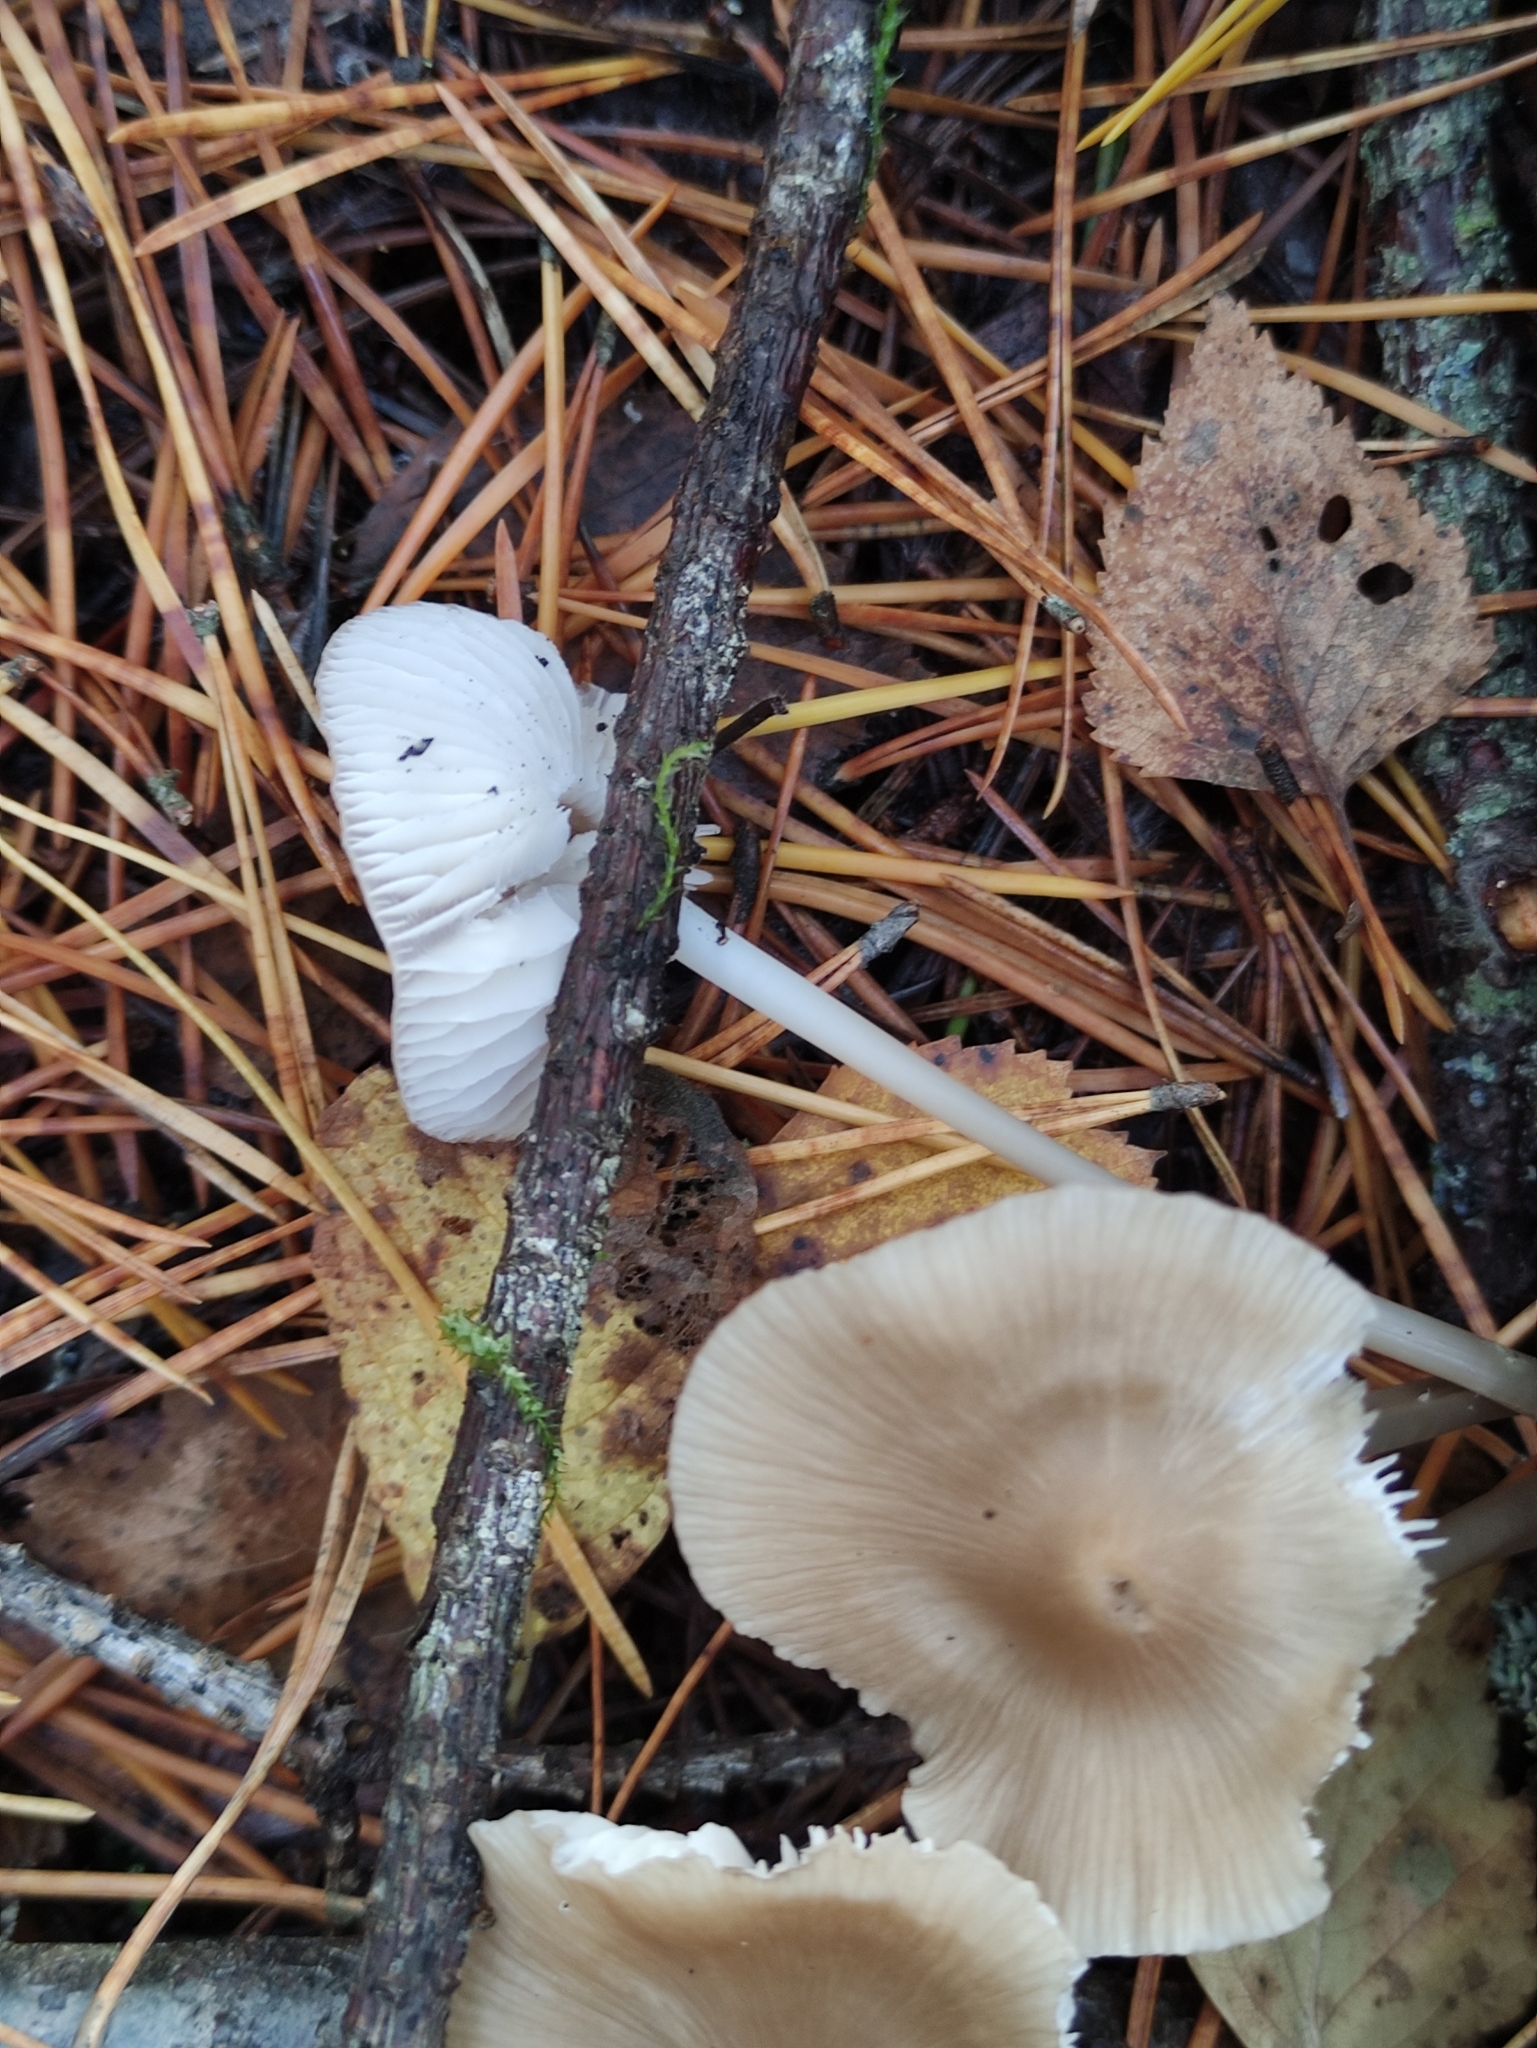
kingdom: Fungi
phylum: Basidiomycota
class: Agaricomycetes
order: Agaricales
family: Mycenaceae
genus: Mycena
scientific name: Mycena galericulata
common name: Bonnet mycena
